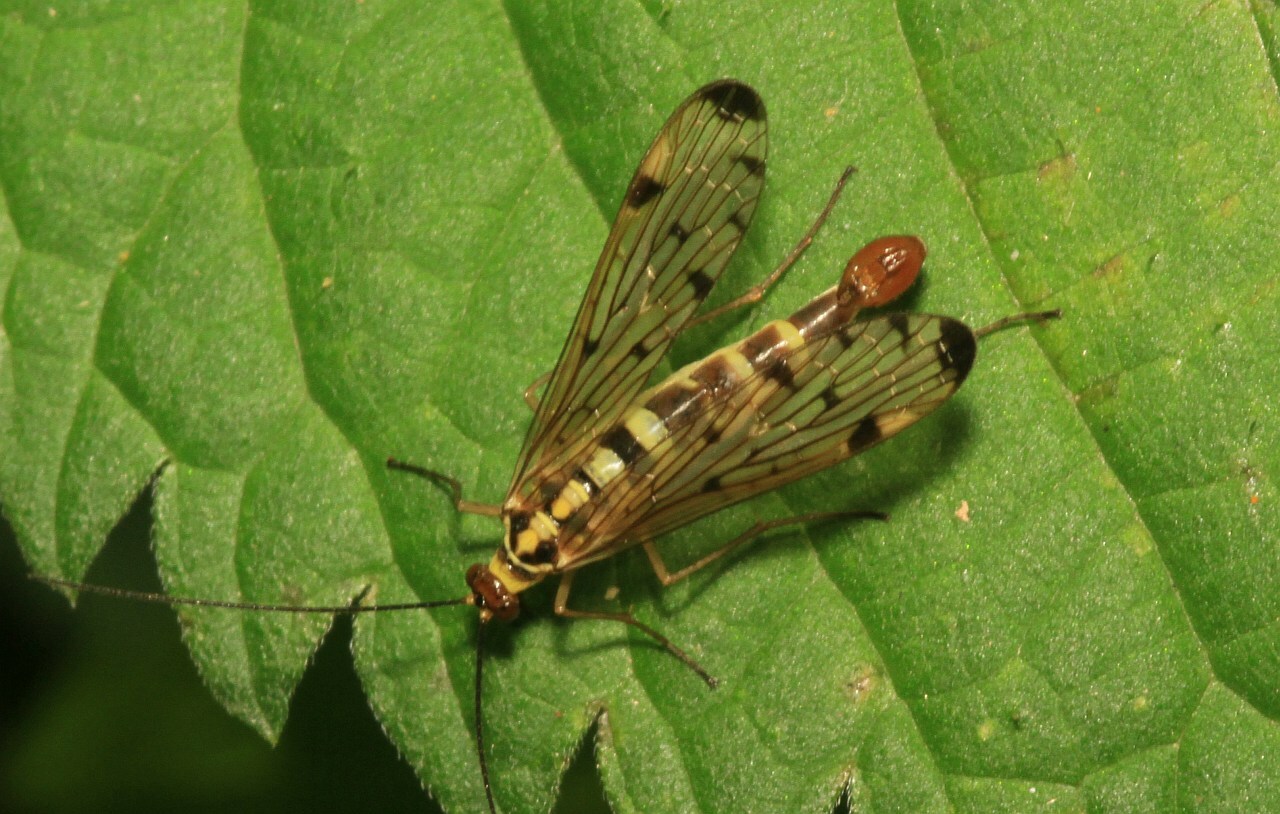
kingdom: Animalia
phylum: Arthropoda
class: Insecta
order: Mecoptera
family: Panorpidae
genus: Panorpa
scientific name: Panorpa germanica
